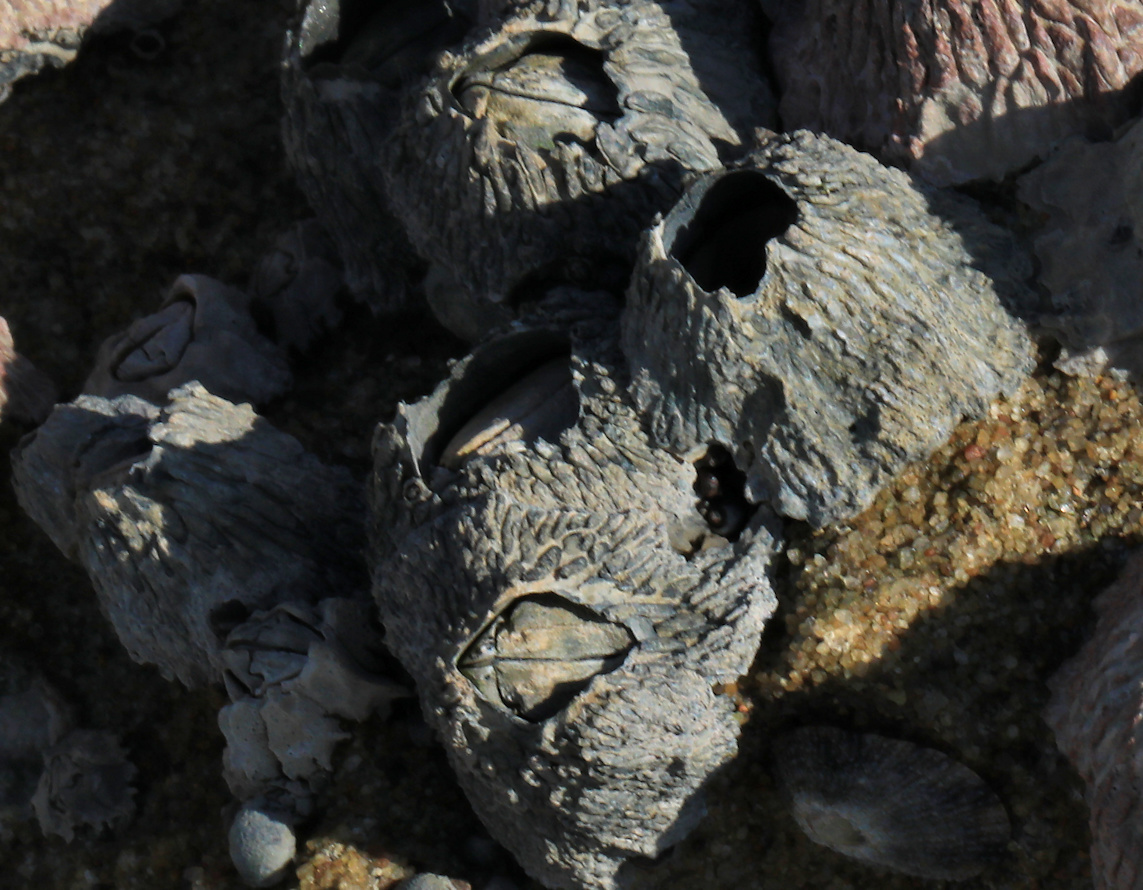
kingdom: Animalia
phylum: Arthropoda
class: Maxillopoda
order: Sessilia
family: Tetraclitidae
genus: Tetraclita
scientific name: Tetraclita serrata
